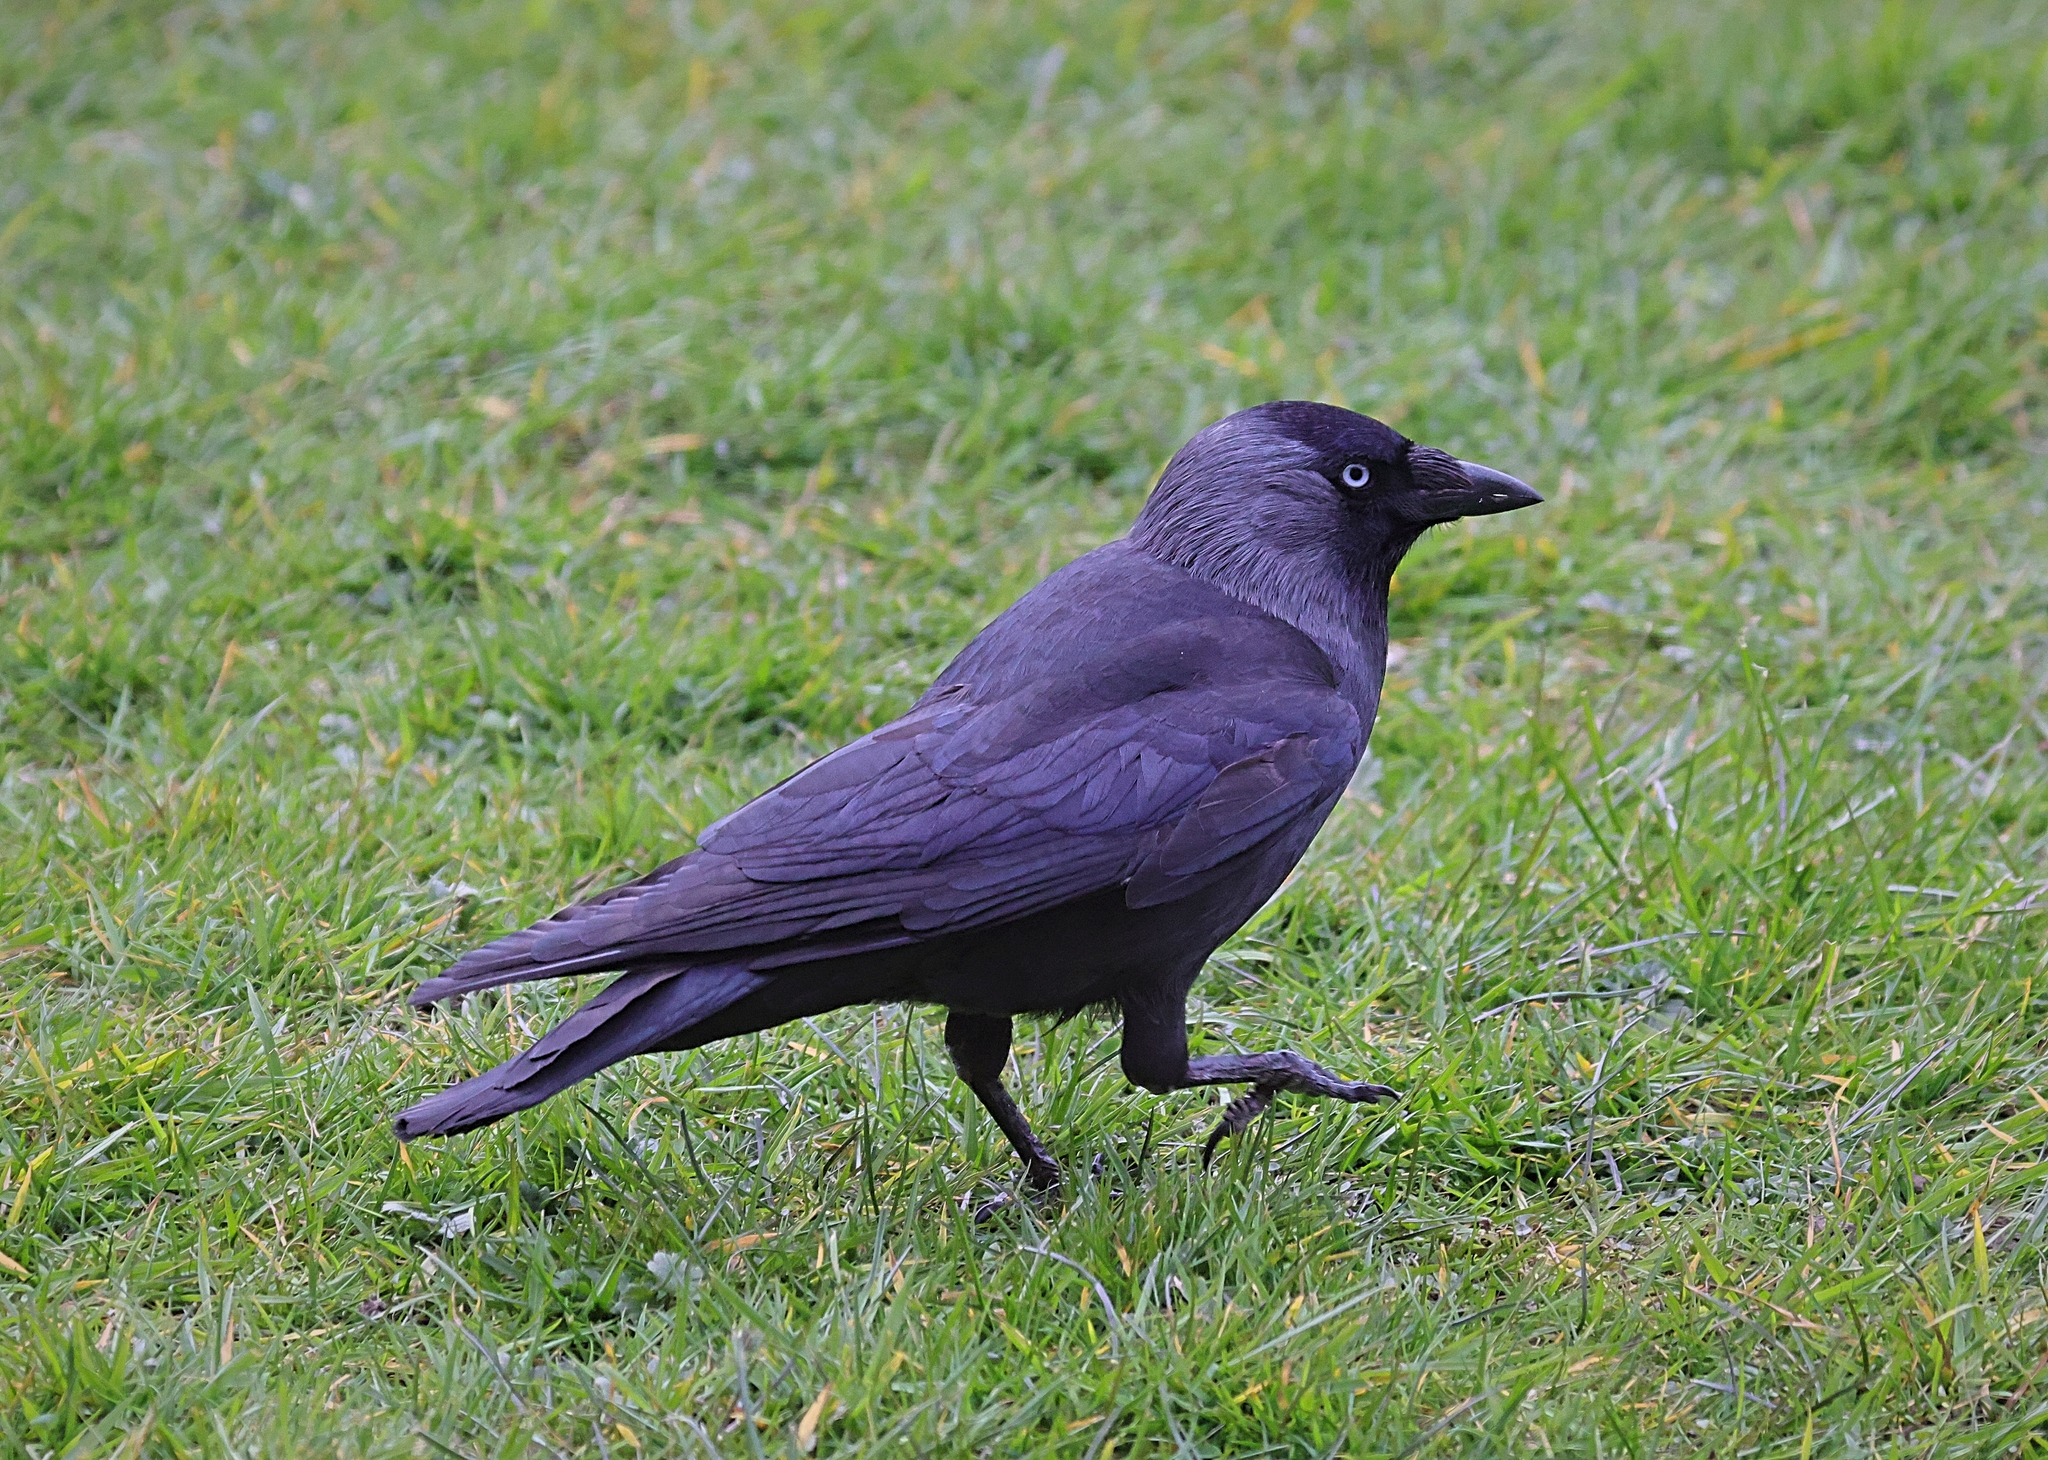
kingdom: Animalia
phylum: Chordata
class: Aves
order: Passeriformes
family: Corvidae
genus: Coloeus
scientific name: Coloeus monedula
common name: Western jackdaw
